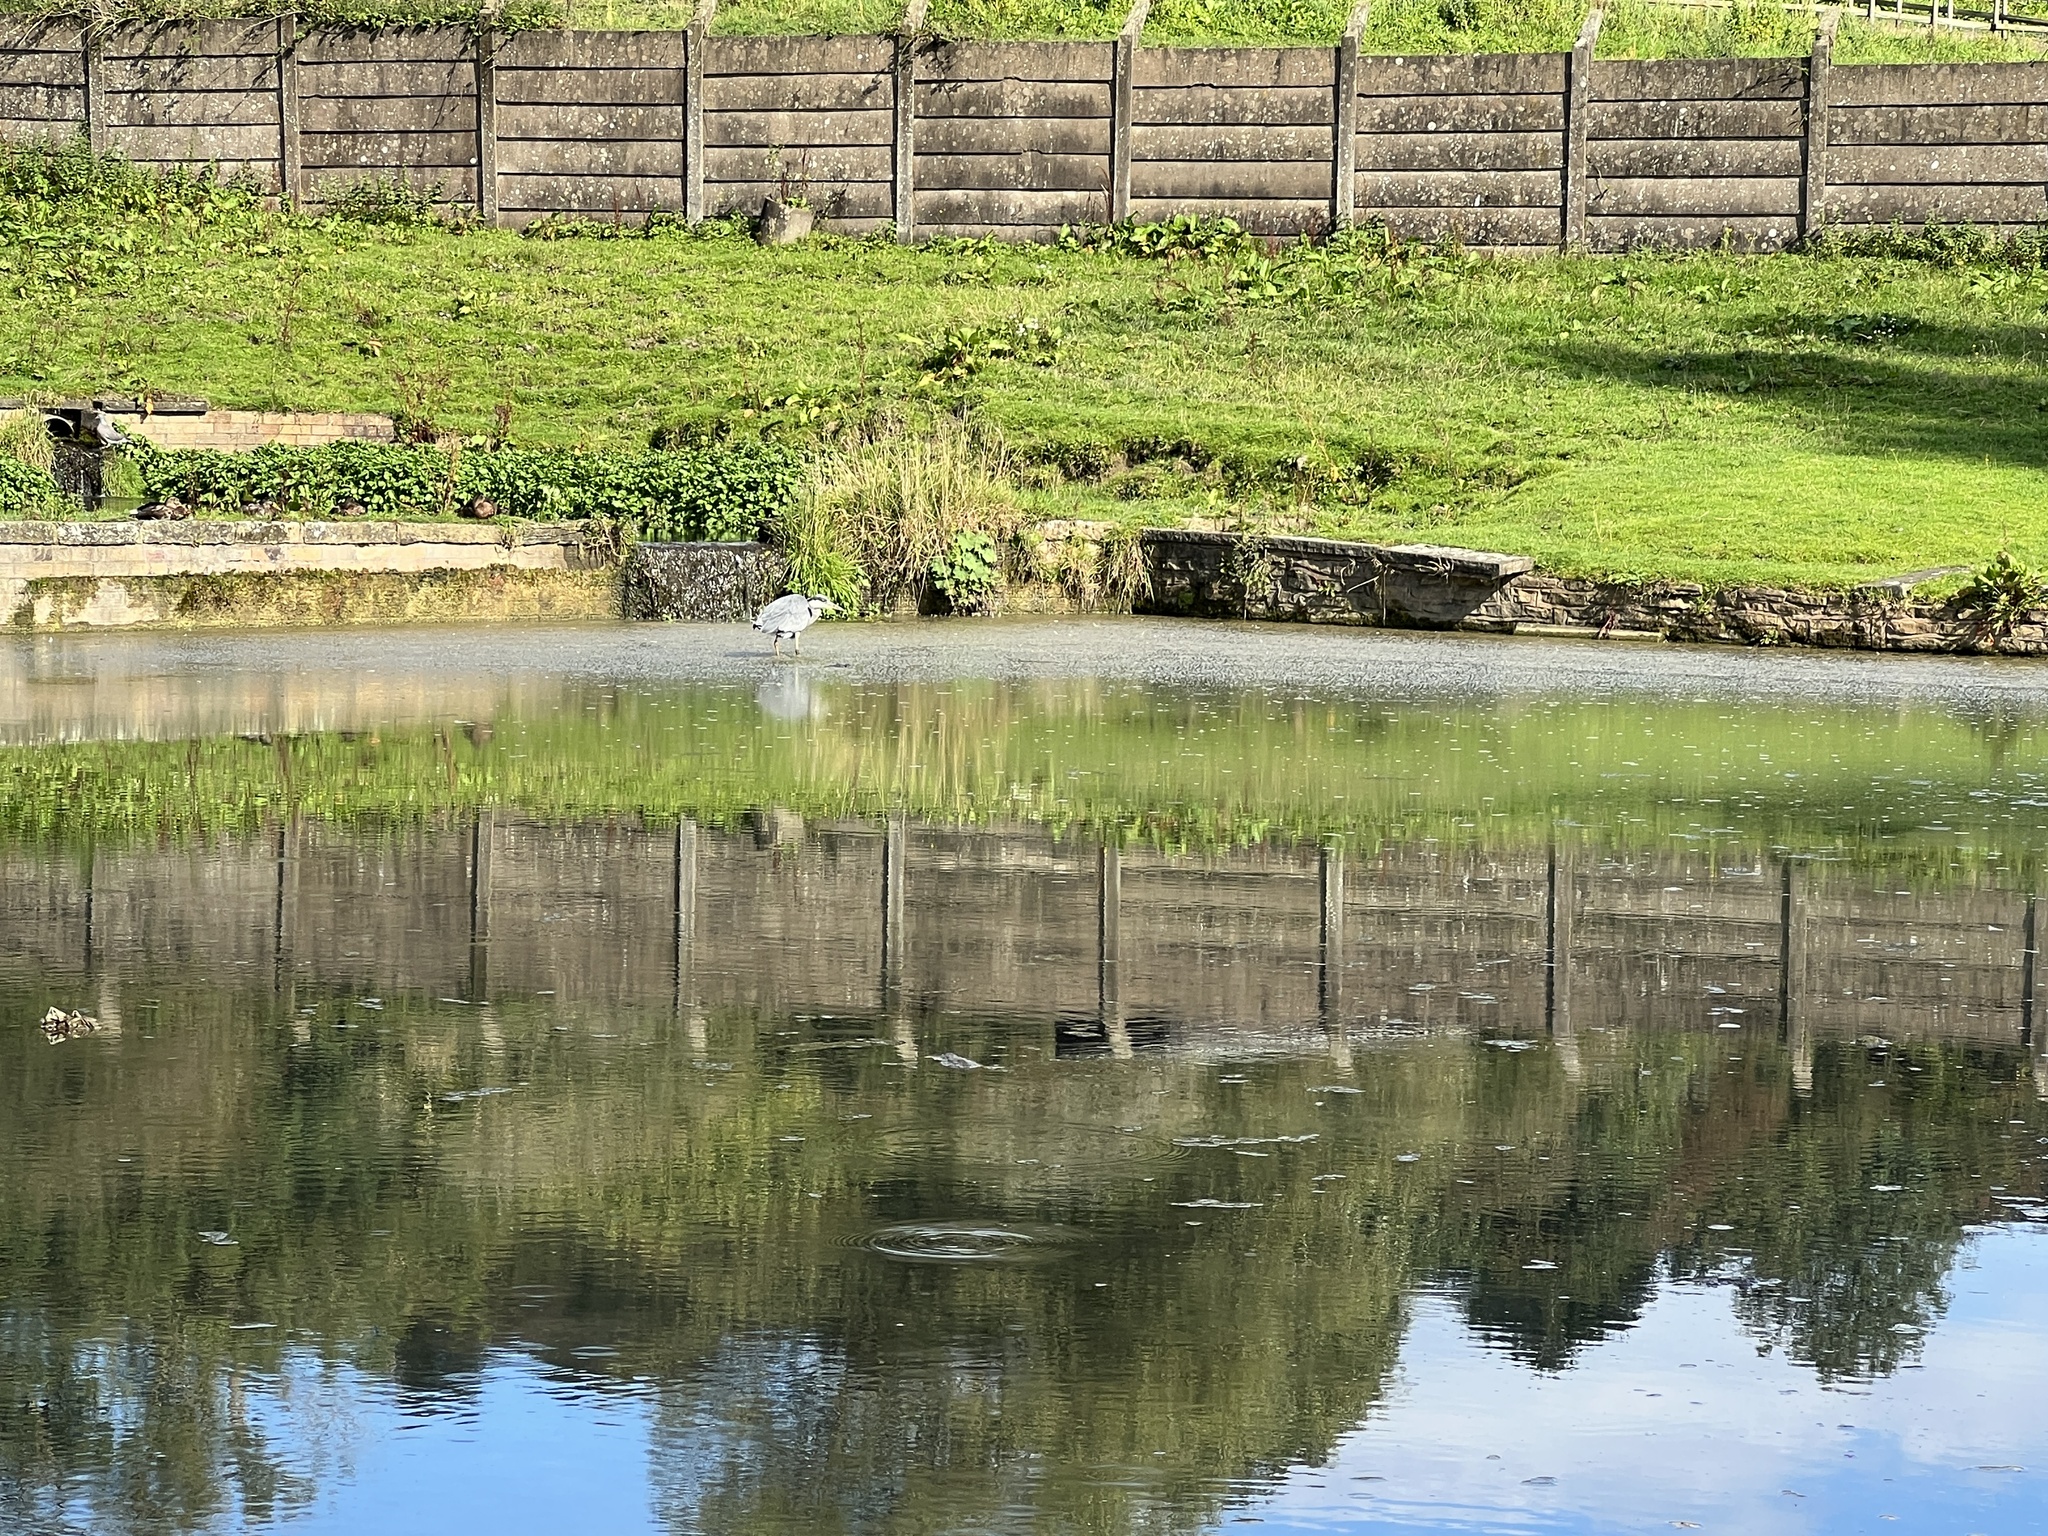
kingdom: Animalia
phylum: Chordata
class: Aves
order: Pelecaniformes
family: Ardeidae
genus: Ardea
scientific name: Ardea cinerea
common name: Grey heron
